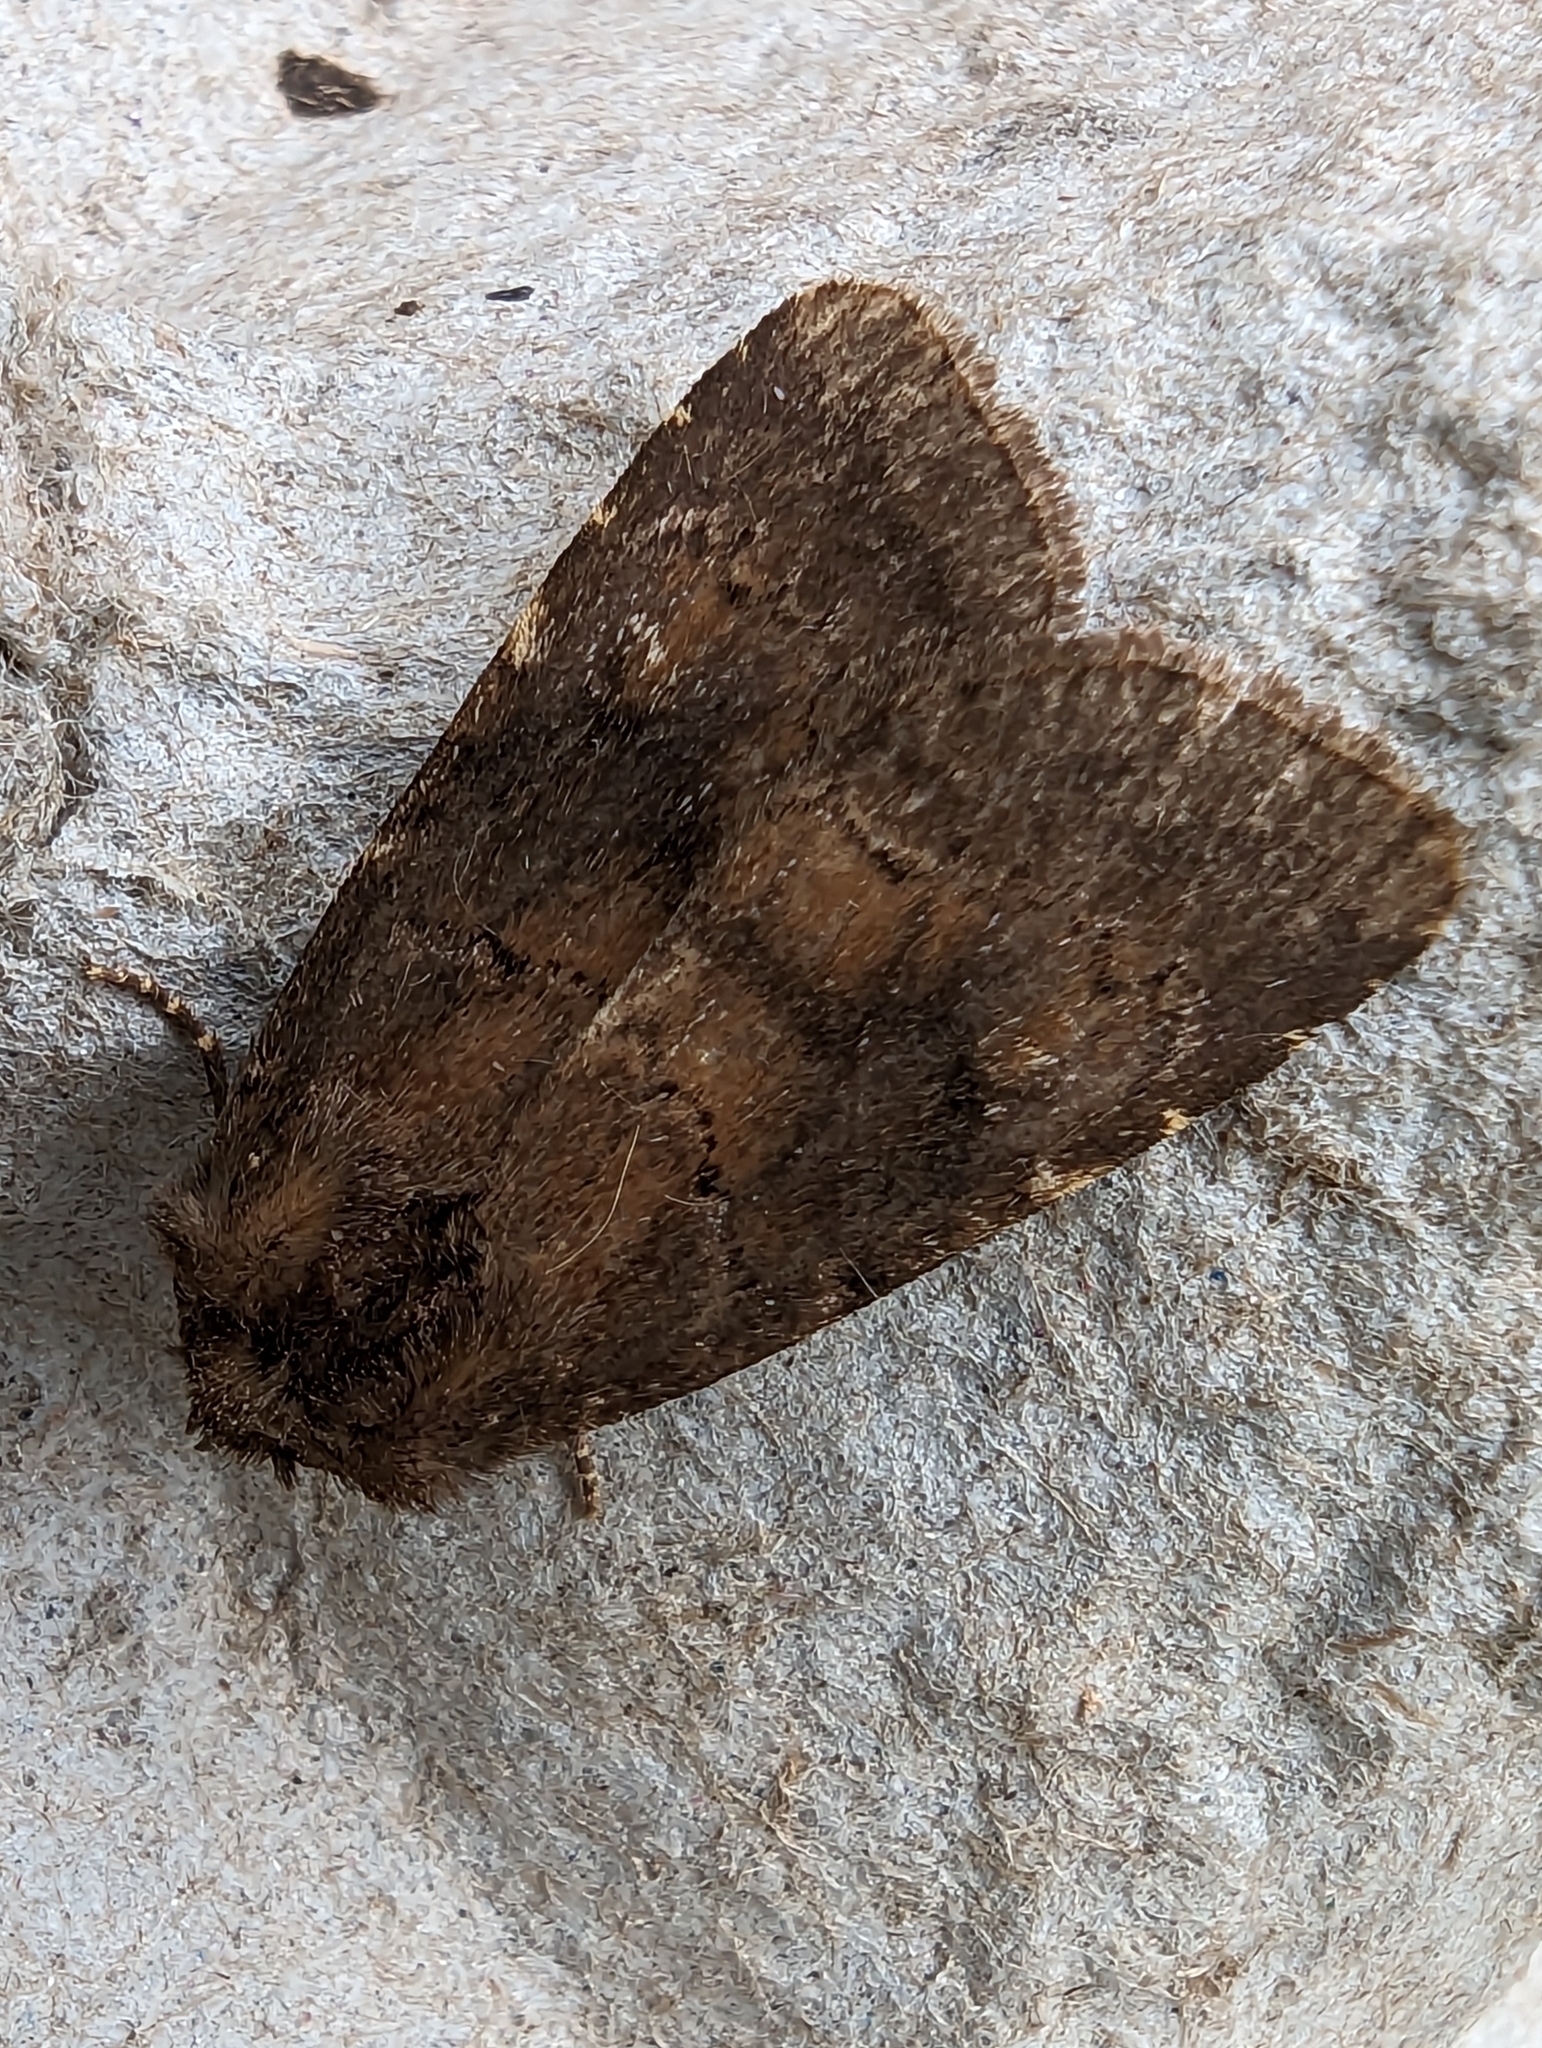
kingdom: Animalia
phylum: Arthropoda
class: Insecta
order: Lepidoptera
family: Noctuidae
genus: Charanyca
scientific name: Charanyca ferruginea
